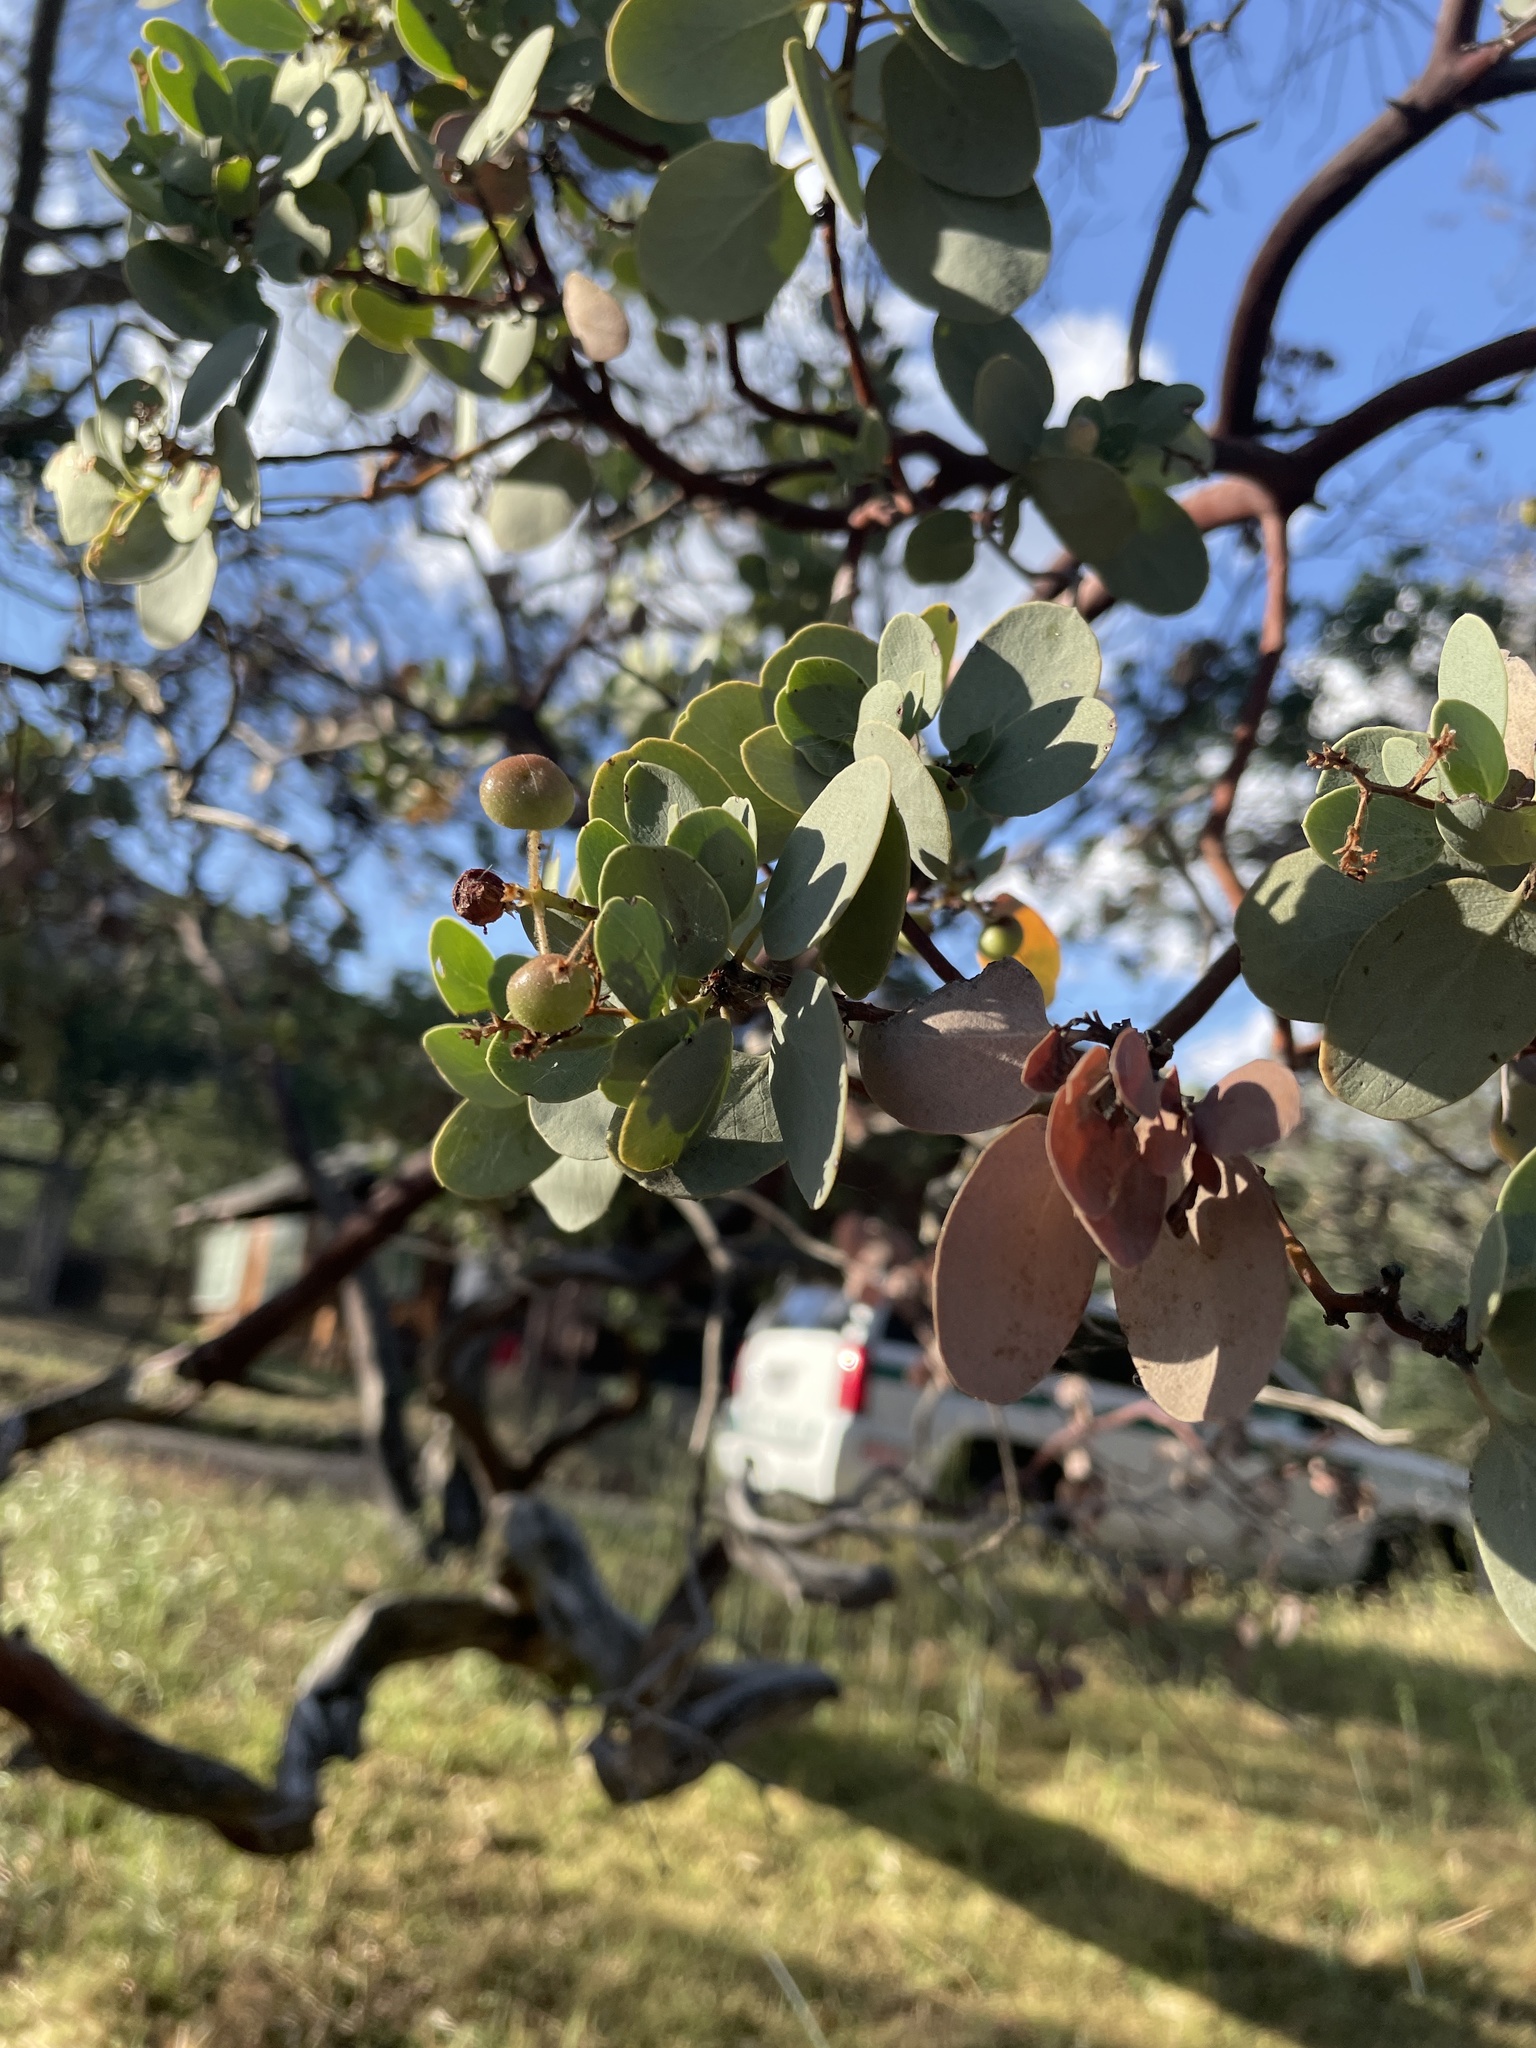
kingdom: Plantae
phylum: Tracheophyta
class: Magnoliopsida
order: Ericales
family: Ericaceae
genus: Arctostaphylos
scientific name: Arctostaphylos viscida
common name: White-leaf manzanita
